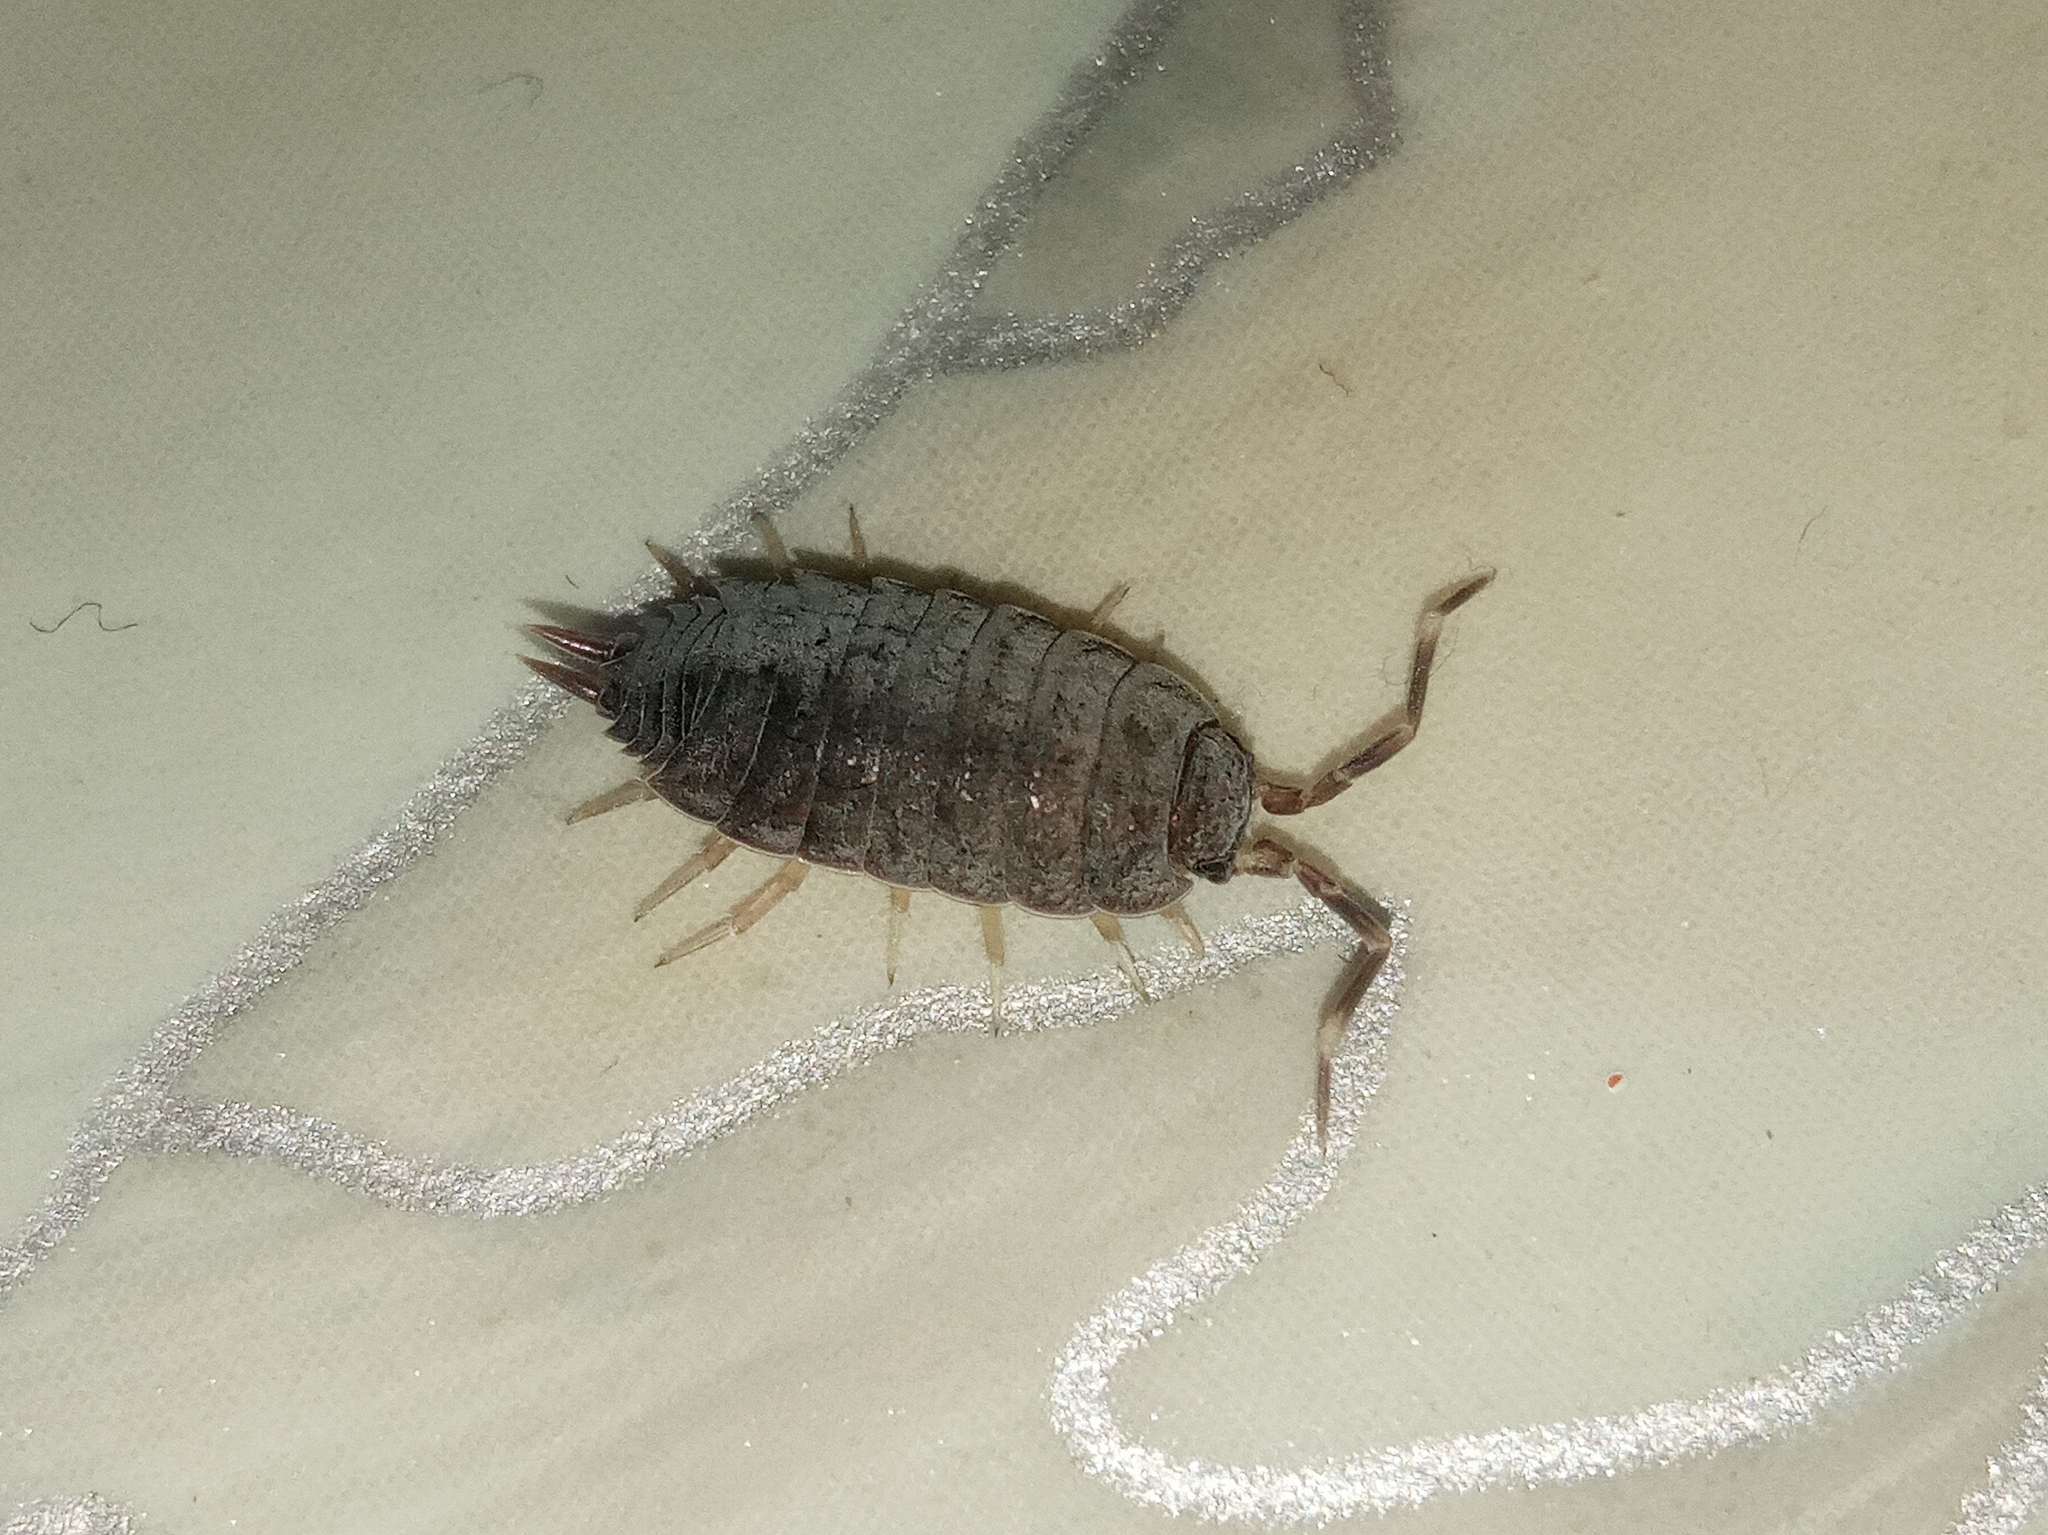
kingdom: Animalia
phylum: Arthropoda
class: Malacostraca
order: Isopoda
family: Porcellionidae
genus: Porcellionides
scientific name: Porcellionides
